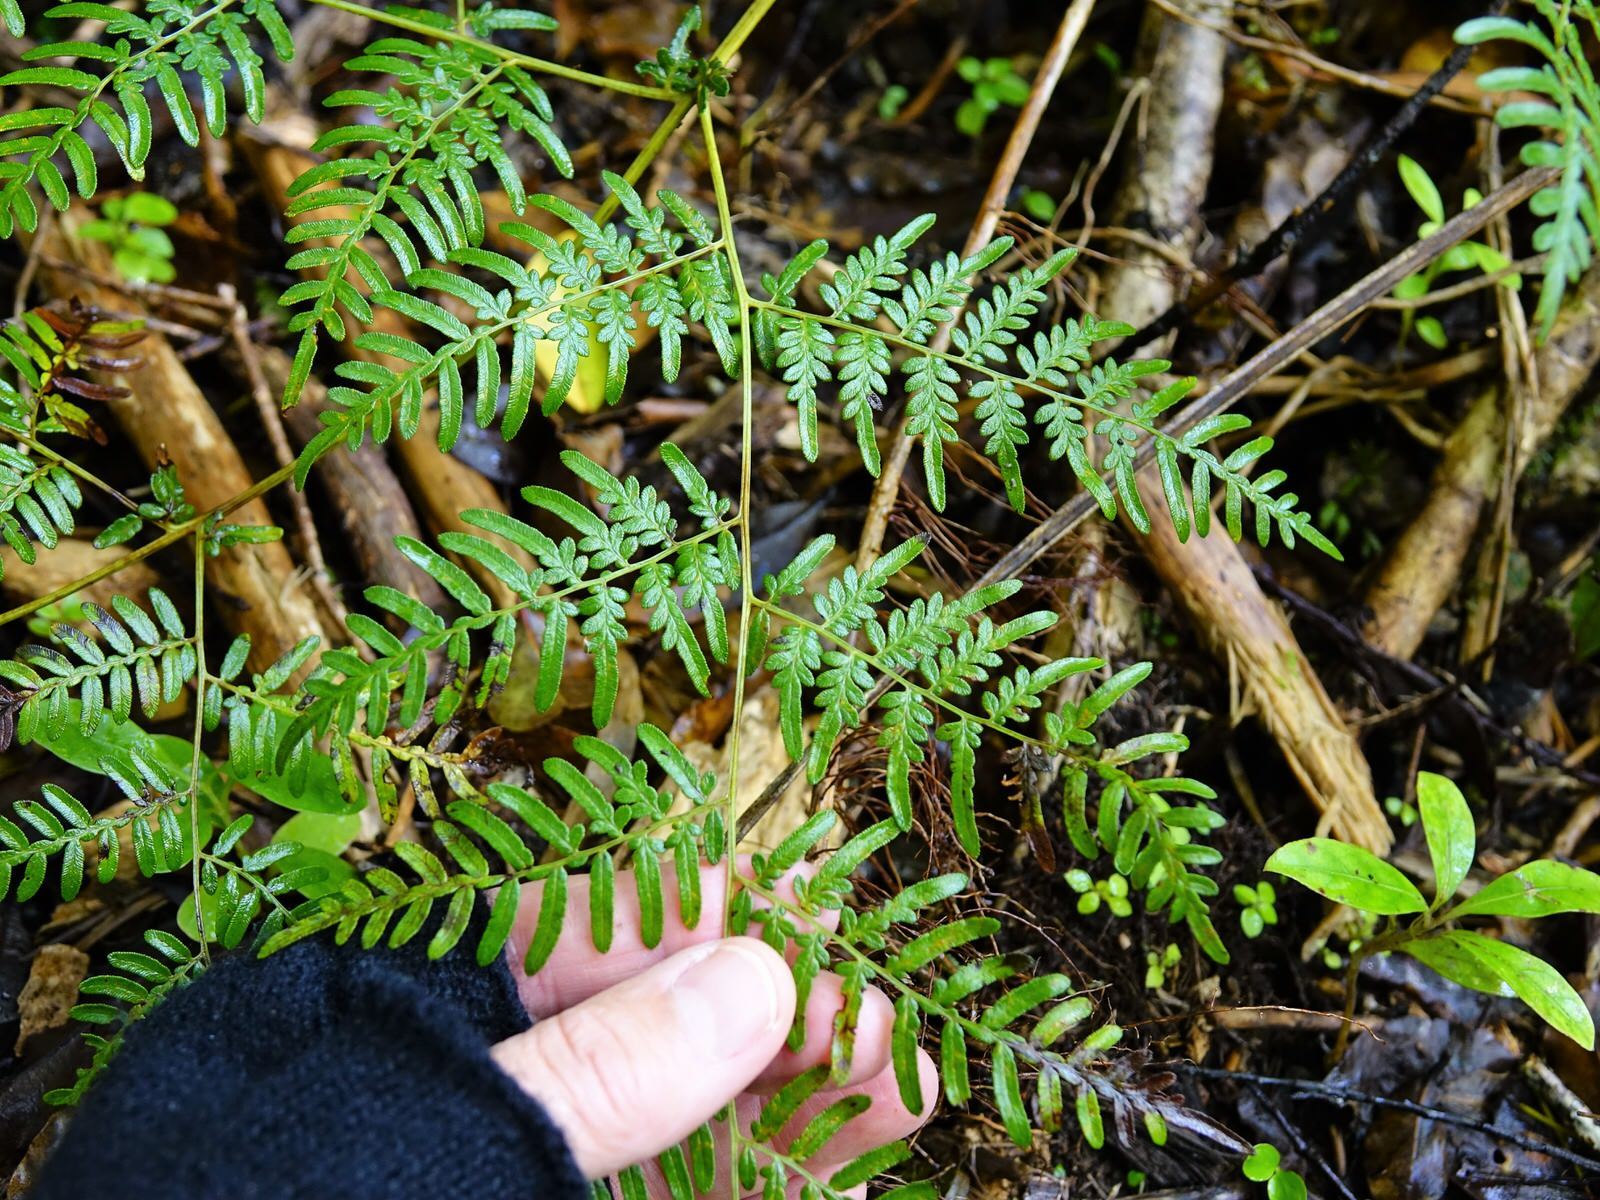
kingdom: Plantae
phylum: Tracheophyta
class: Polypodiopsida
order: Polypodiales
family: Dennstaedtiaceae
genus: Pteridium
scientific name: Pteridium esculentum
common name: Bracken fern
